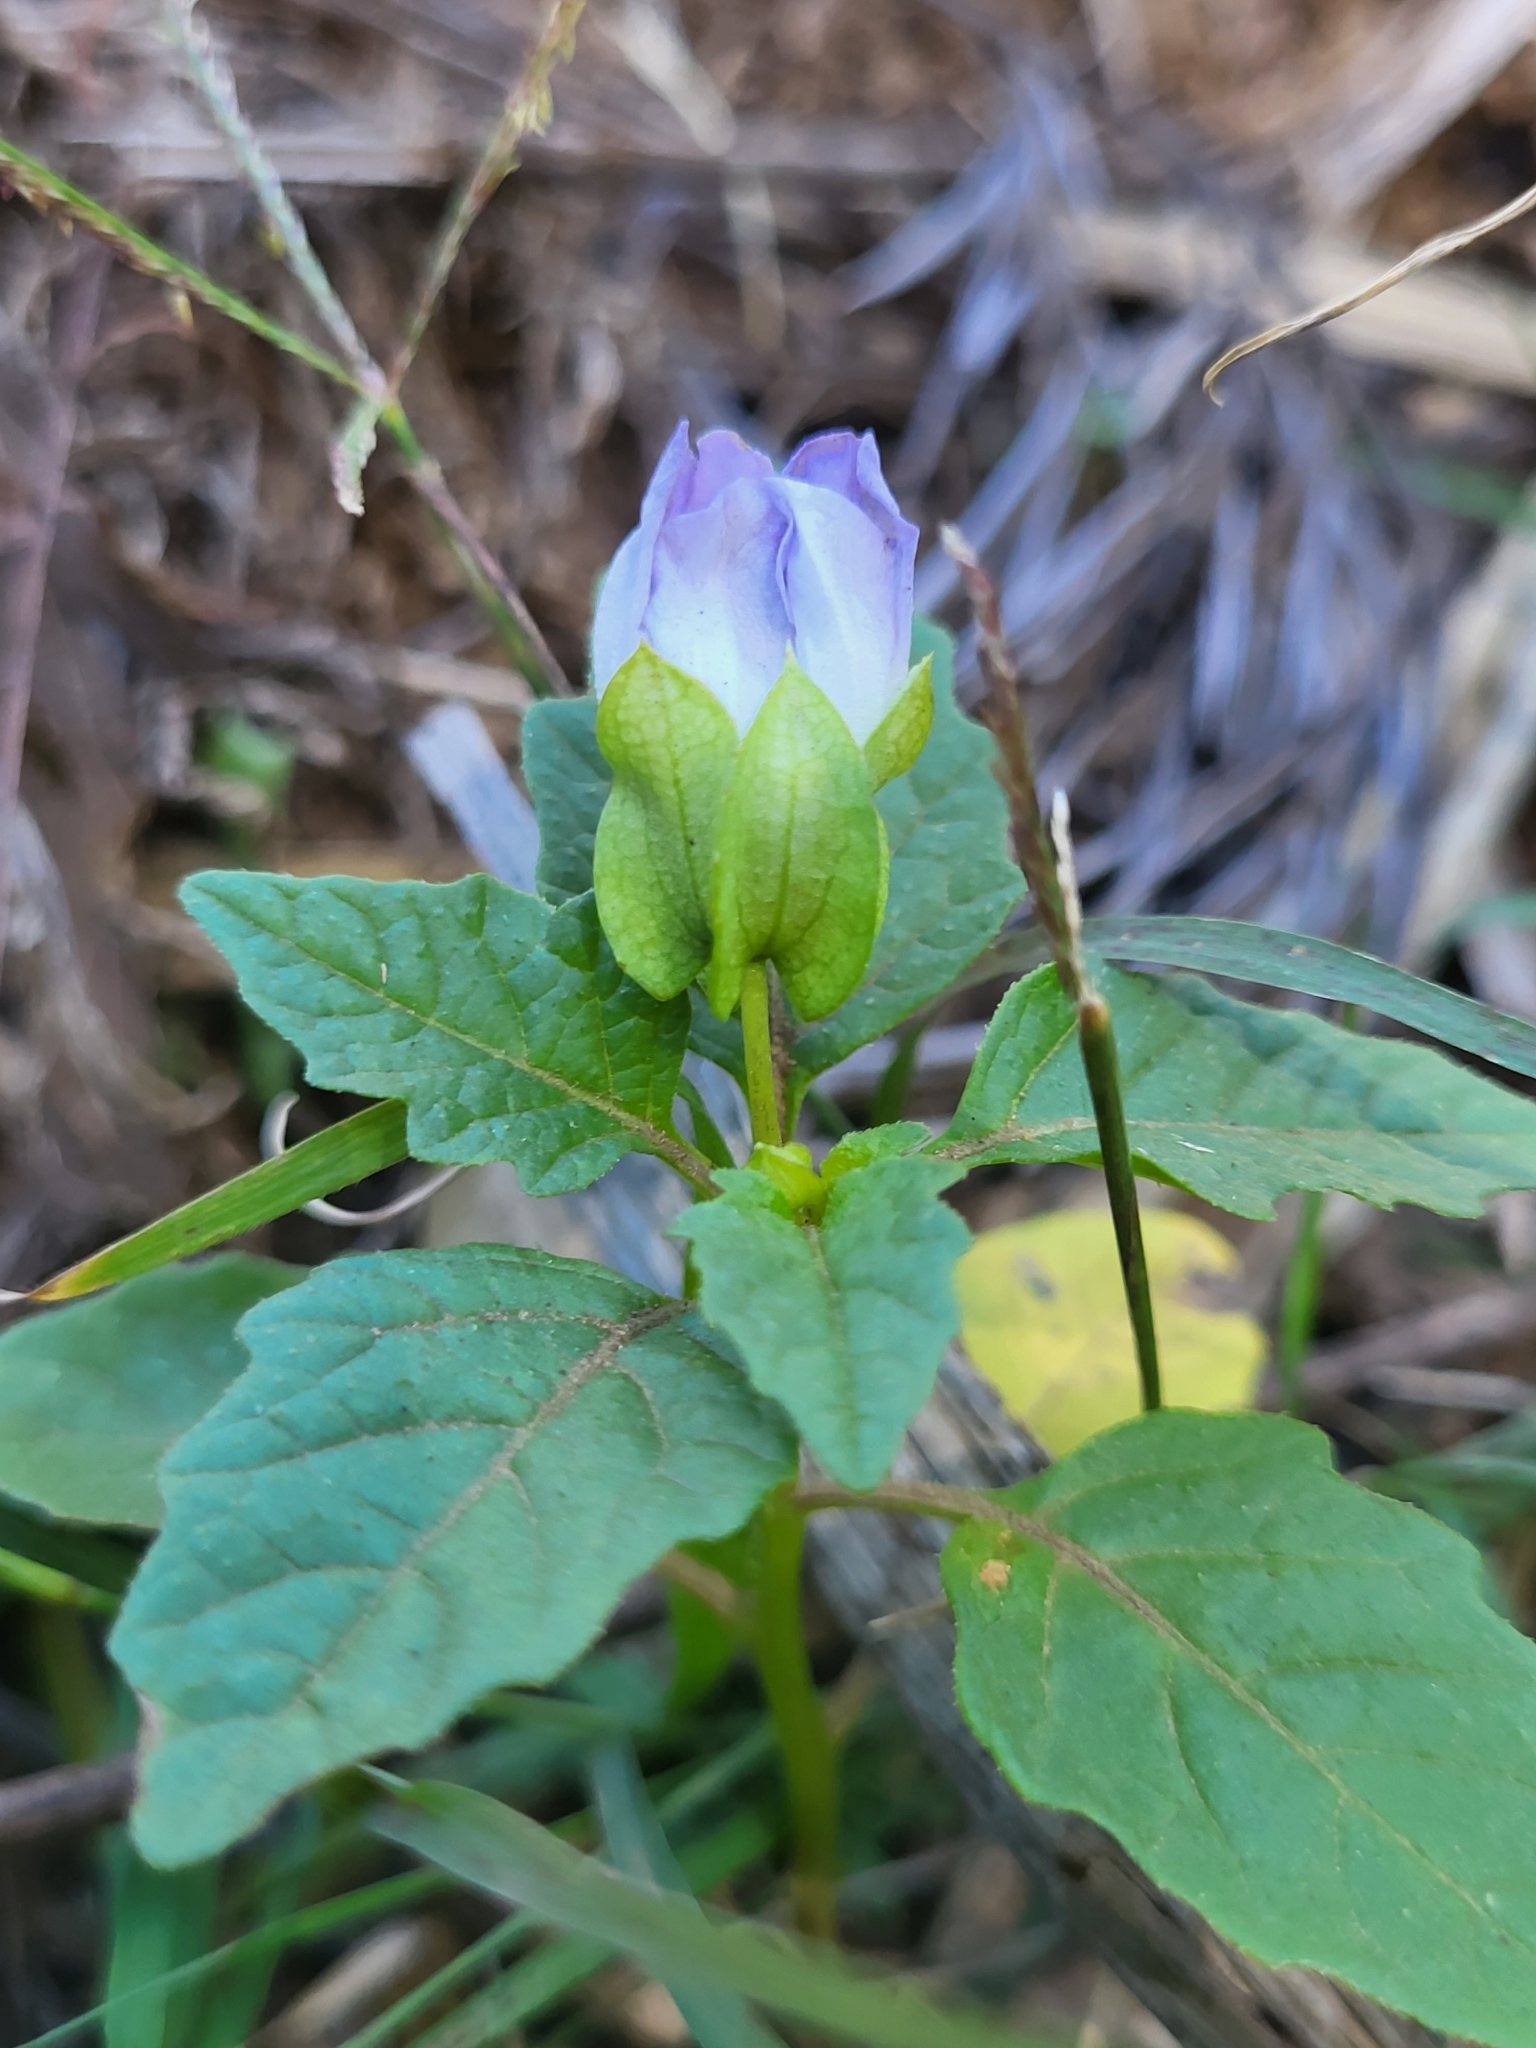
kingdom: Plantae
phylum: Tracheophyta
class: Magnoliopsida
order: Solanales
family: Solanaceae
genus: Nicandra
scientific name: Nicandra physalodes
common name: Apple-of-peru
